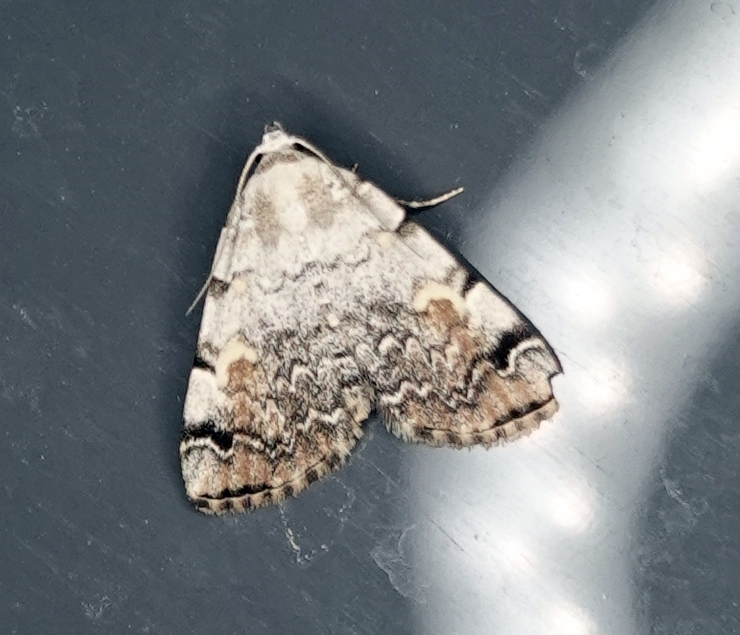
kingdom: Animalia
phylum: Arthropoda
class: Insecta
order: Lepidoptera
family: Erebidae
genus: Idia
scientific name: Idia americalis
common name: American idia moth
